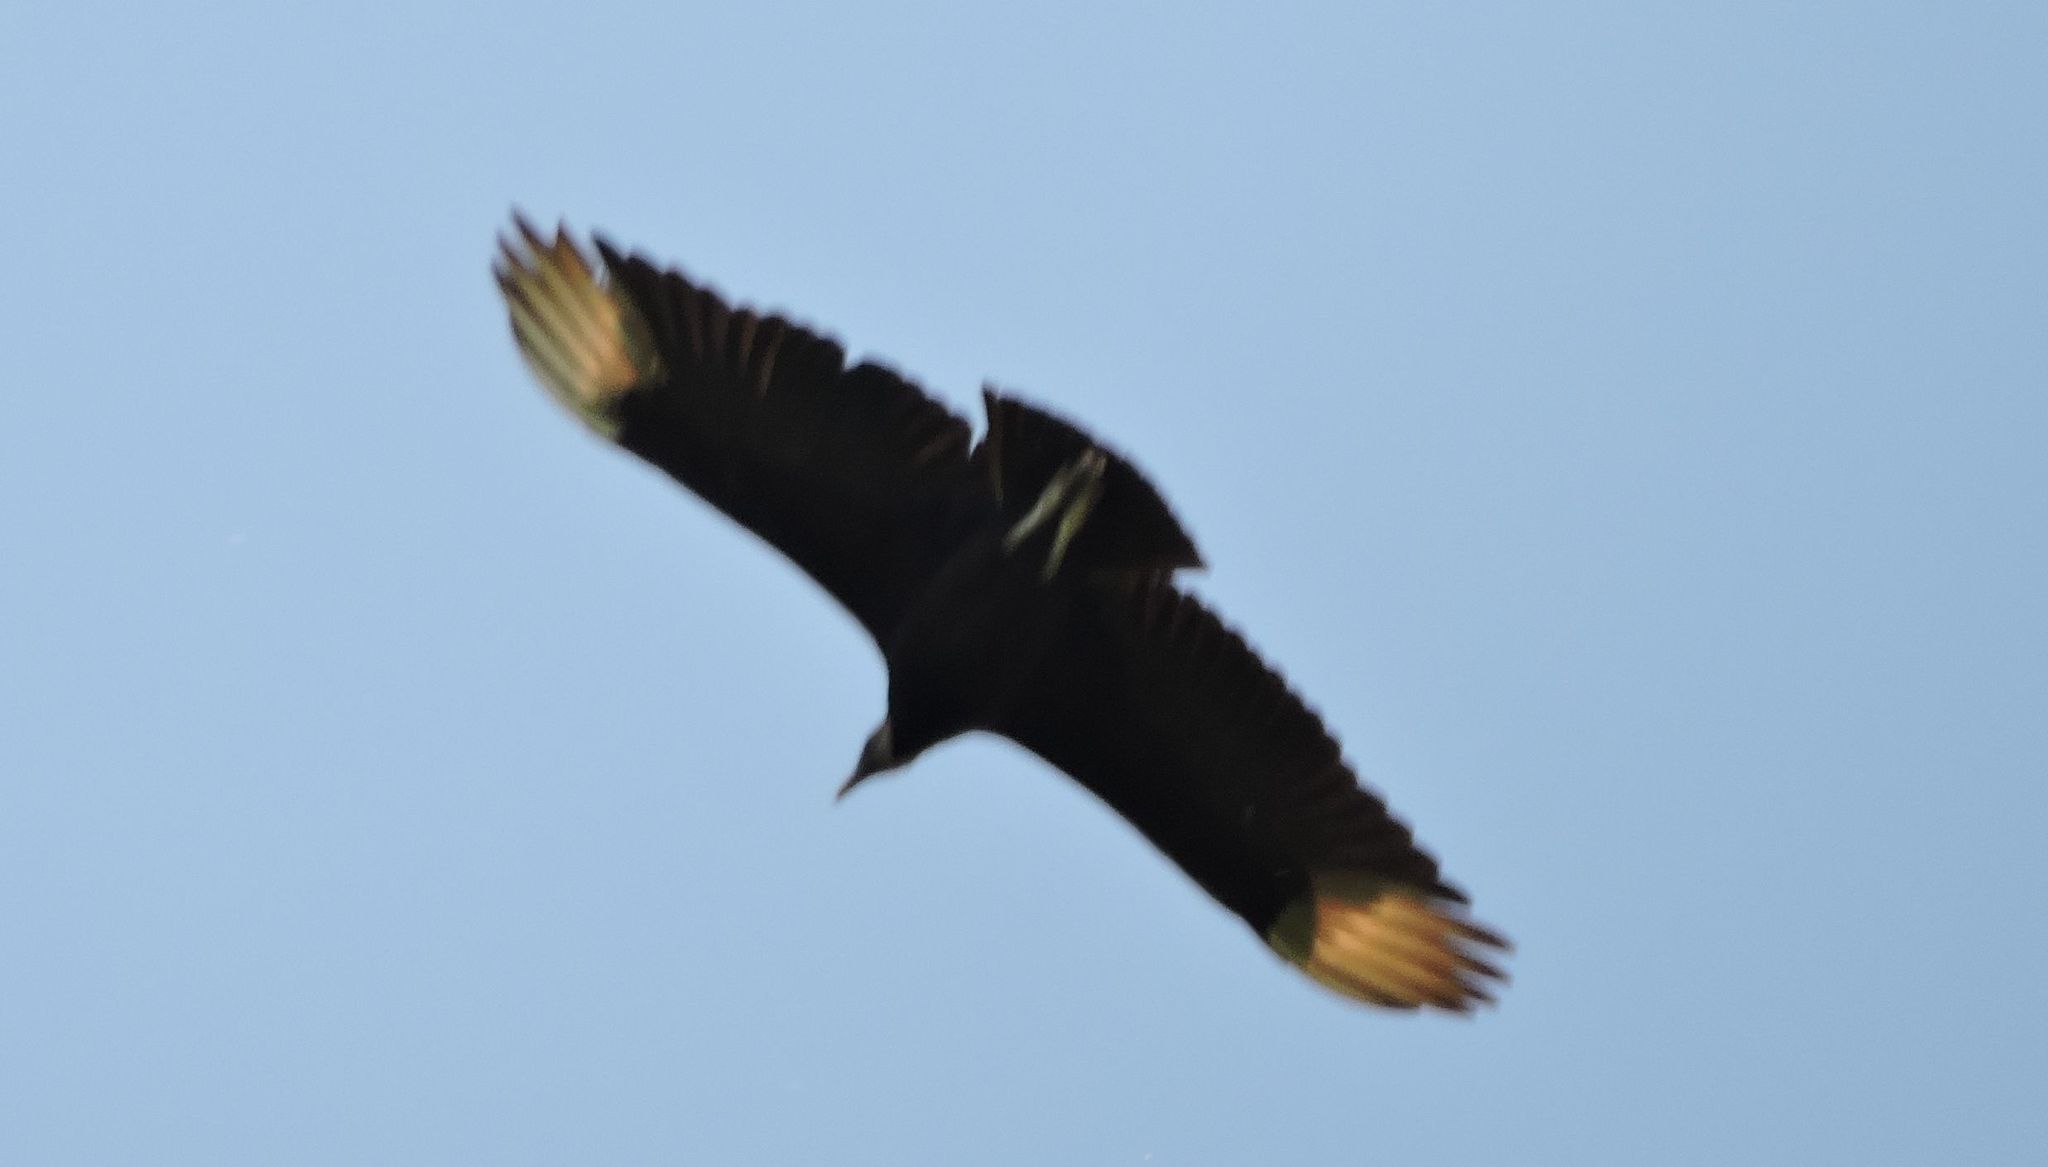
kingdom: Animalia
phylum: Chordata
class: Aves
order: Accipitriformes
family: Cathartidae
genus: Coragyps
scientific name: Coragyps atratus
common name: Black vulture
